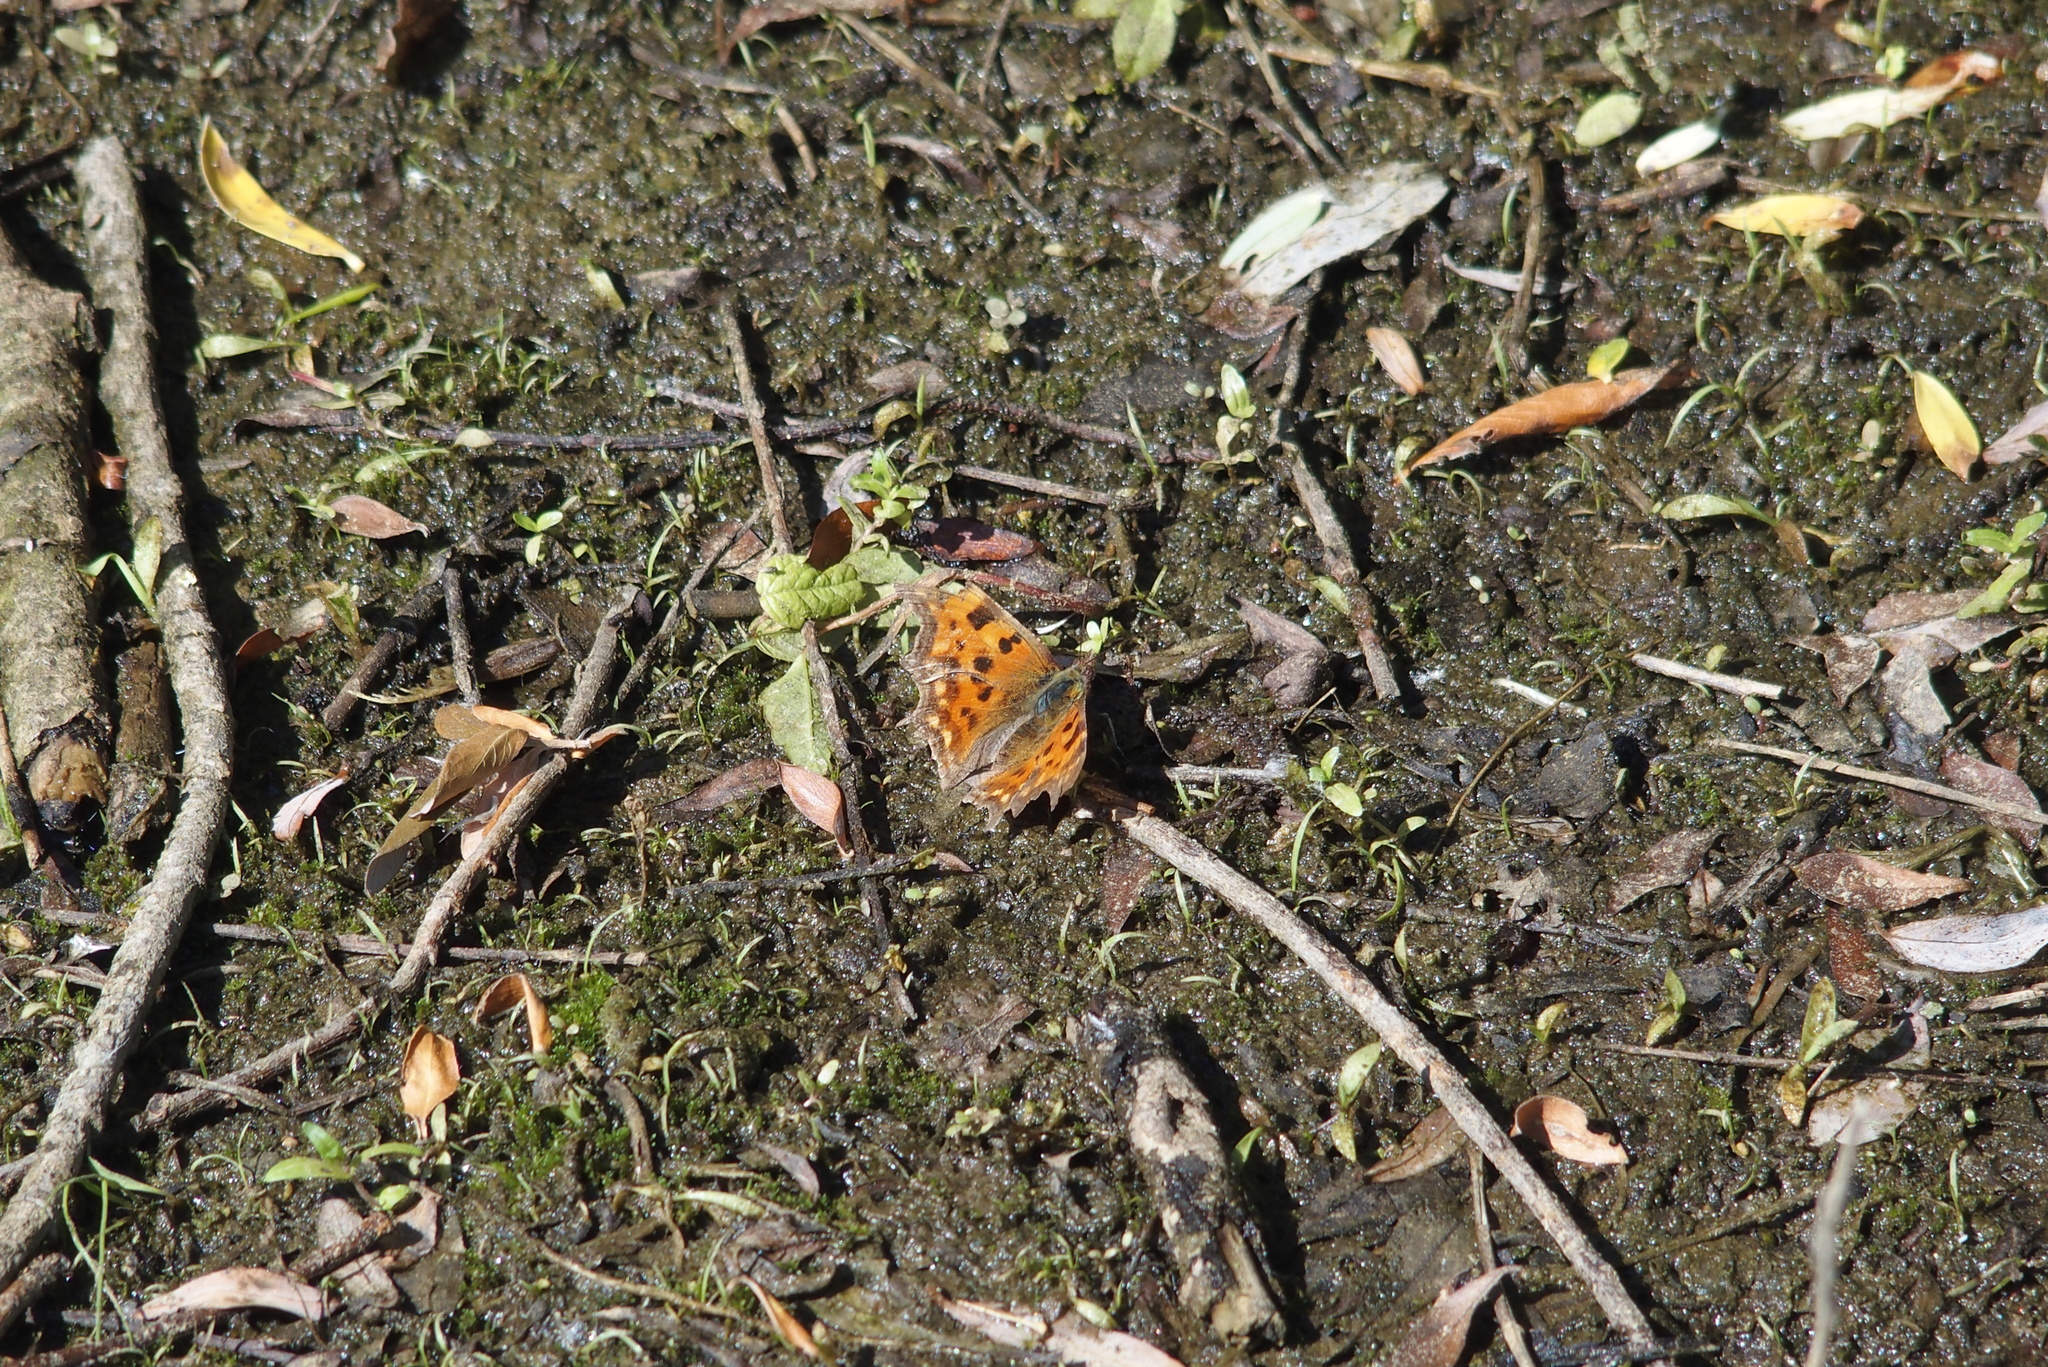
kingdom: Animalia
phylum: Arthropoda
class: Insecta
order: Lepidoptera
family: Nymphalidae
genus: Polygonia
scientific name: Polygonia c-album
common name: Comma
